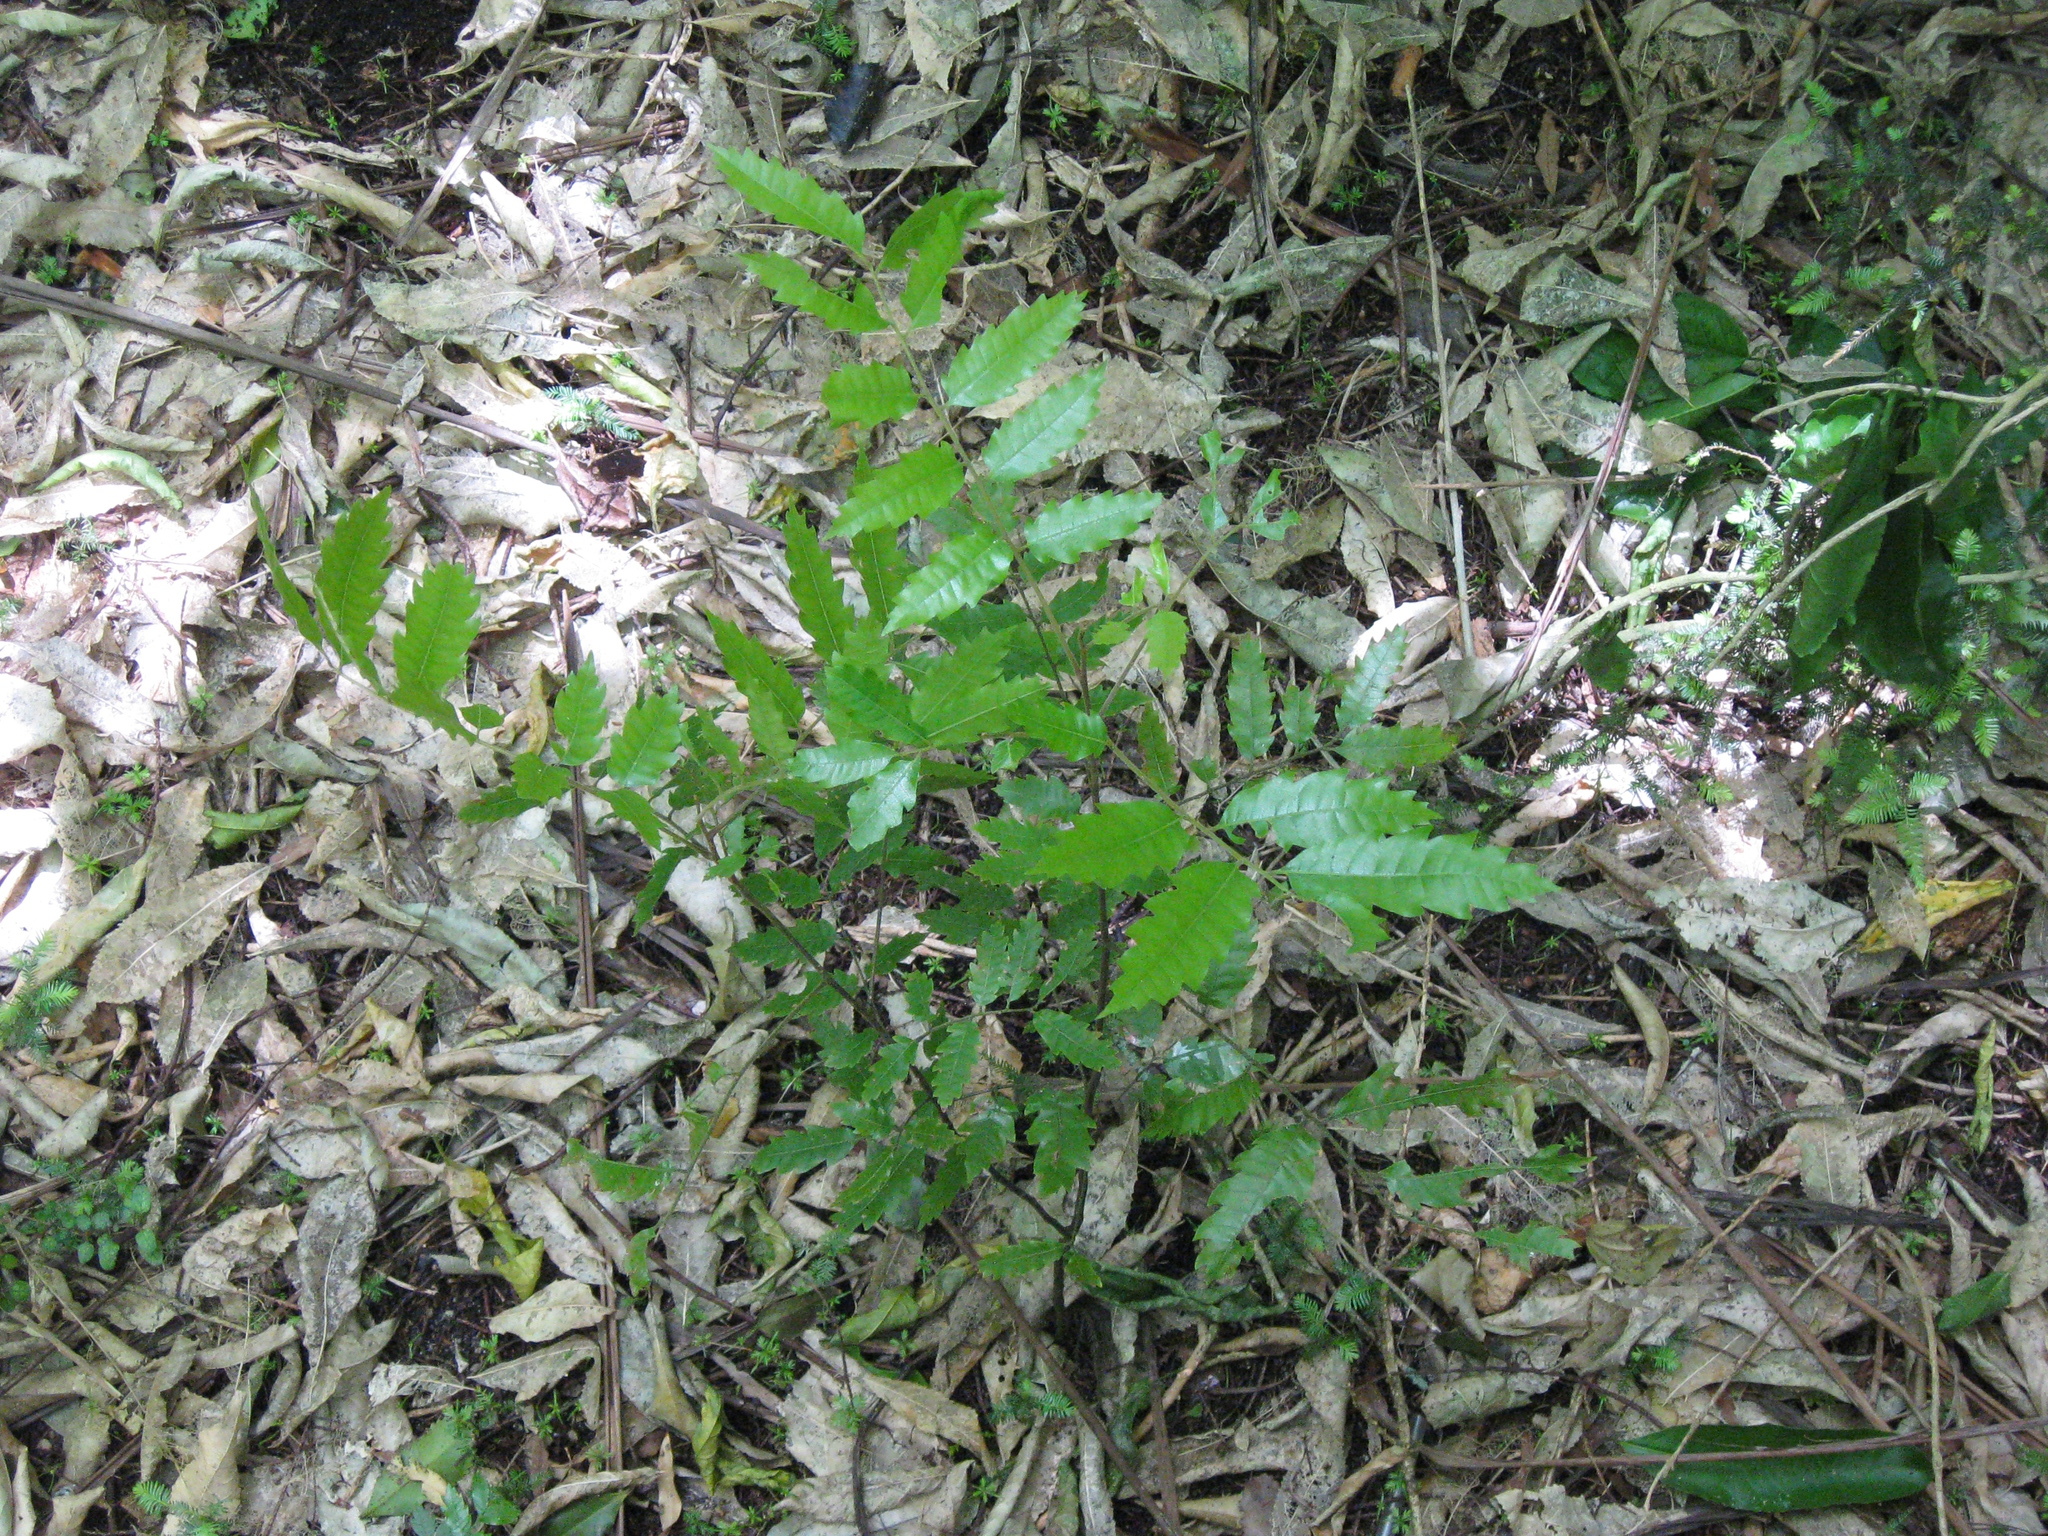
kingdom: Plantae
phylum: Tracheophyta
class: Magnoliopsida
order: Sapindales
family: Sapindaceae
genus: Alectryon
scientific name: Alectryon excelsus
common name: Three kings titoki
